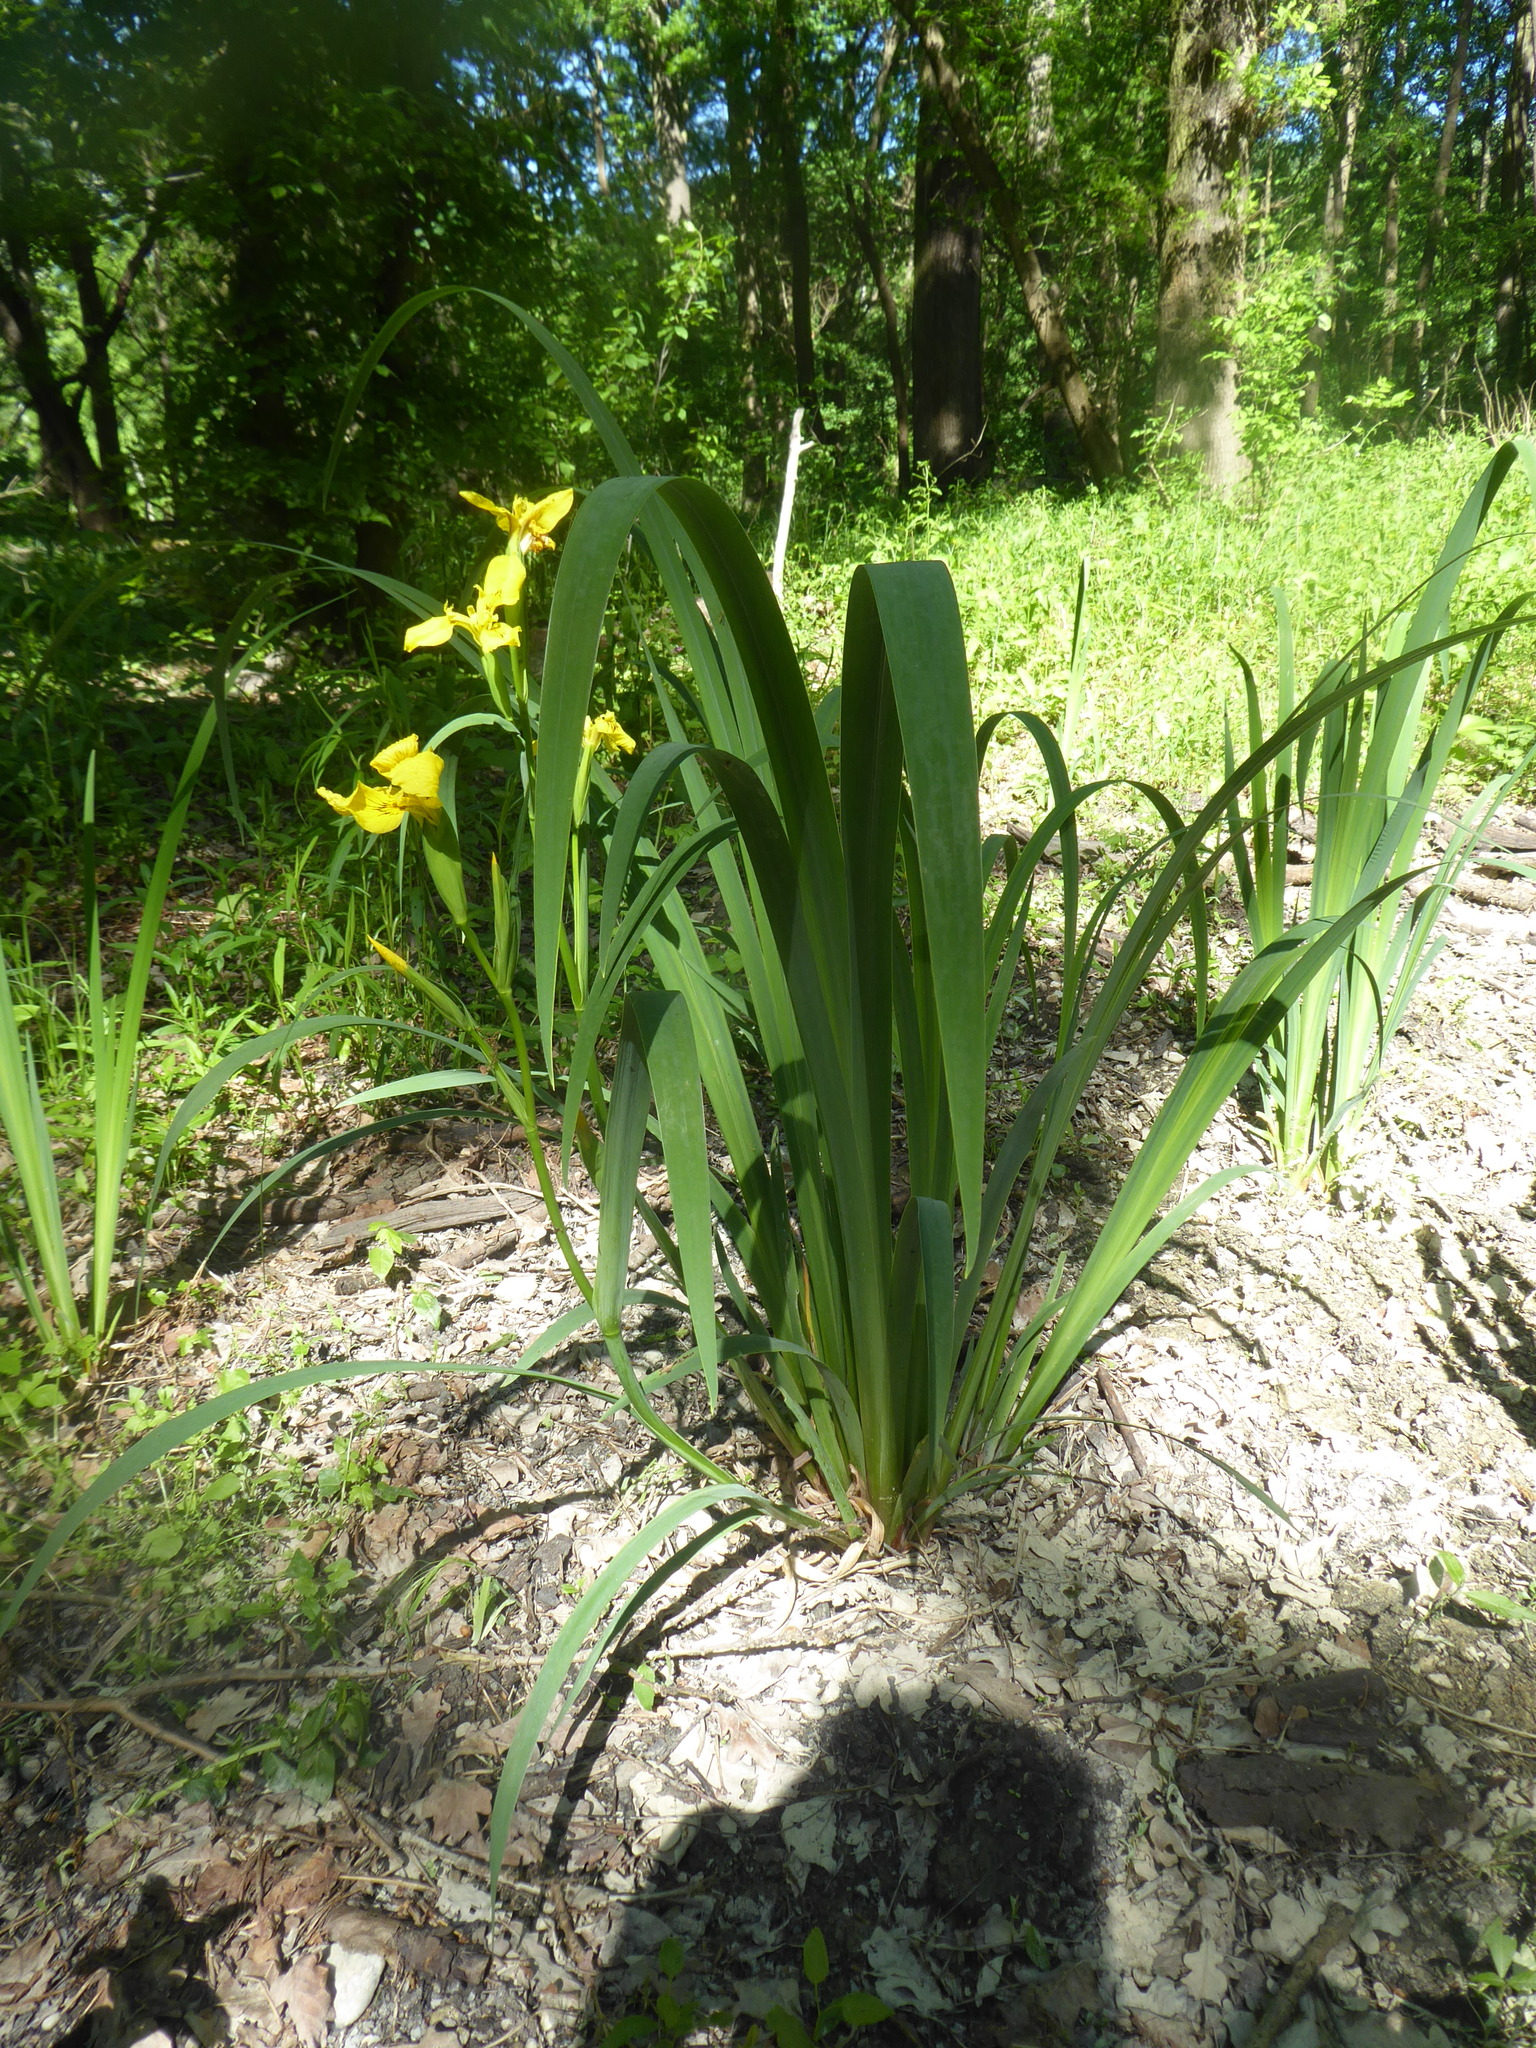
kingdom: Plantae
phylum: Tracheophyta
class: Liliopsida
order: Asparagales
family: Iridaceae
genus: Iris
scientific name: Iris pseudacorus
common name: Yellow flag
